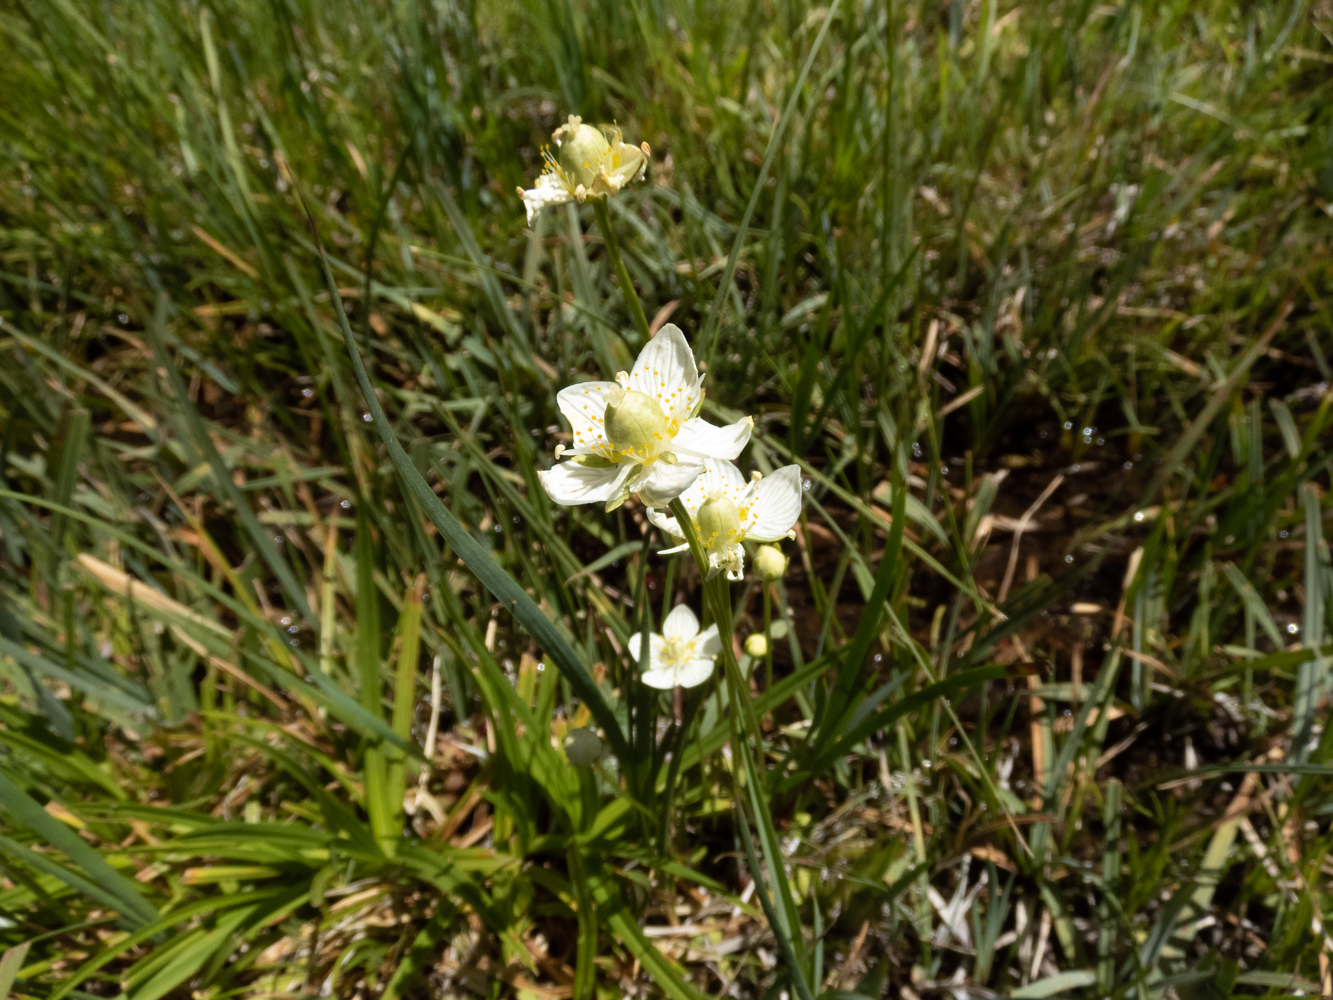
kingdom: Plantae
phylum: Tracheophyta
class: Magnoliopsida
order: Celastrales
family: Parnassiaceae
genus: Parnassia
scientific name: Parnassia palustris
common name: Grass-of-parnassus
